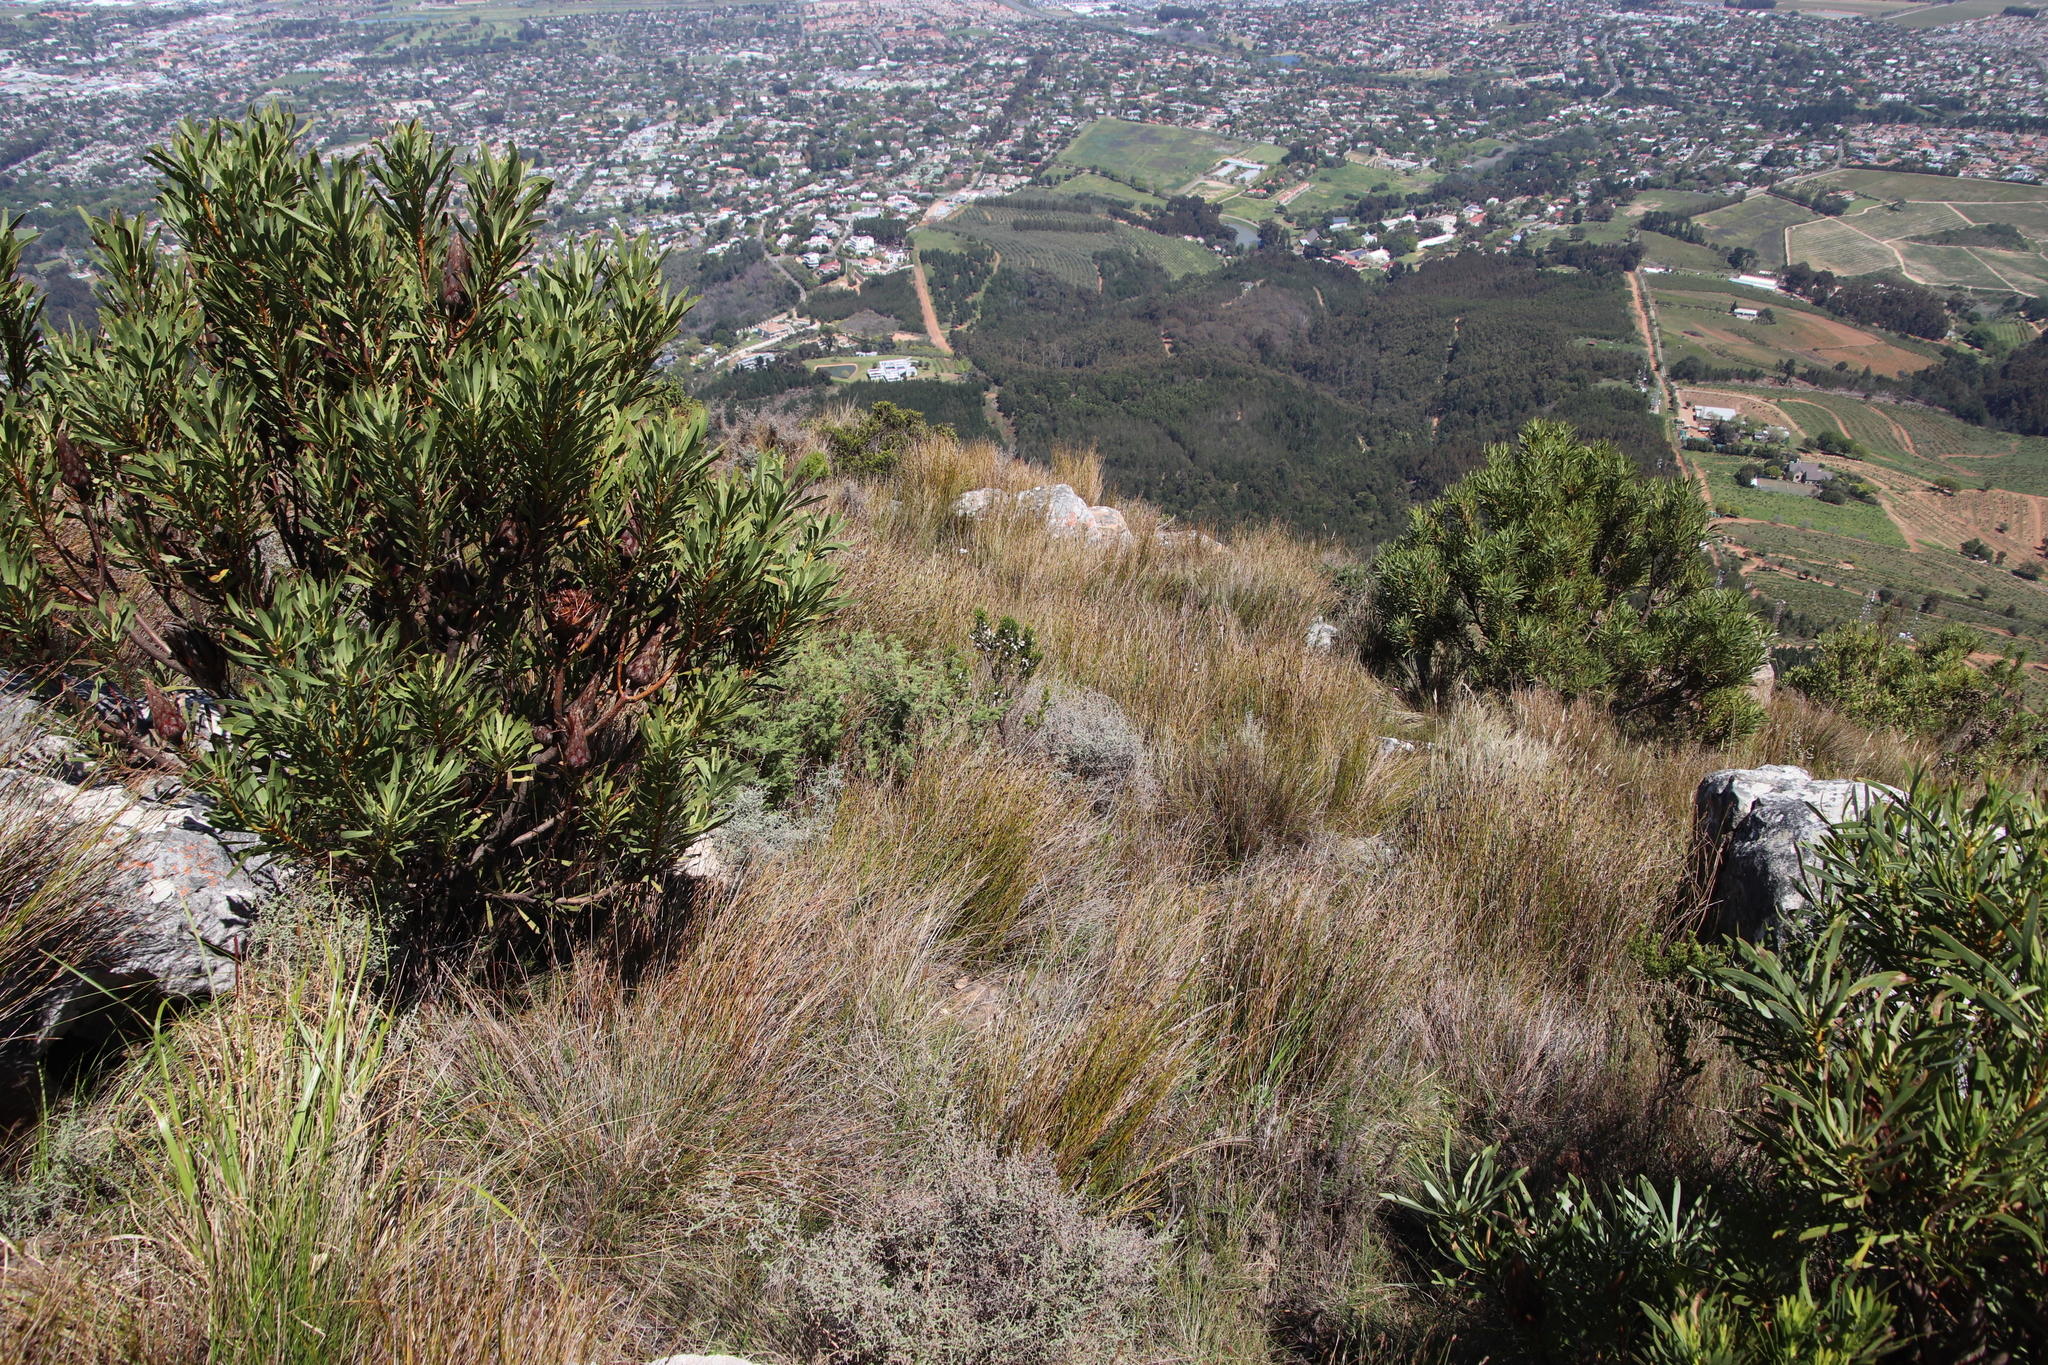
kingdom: Plantae
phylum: Tracheophyta
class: Magnoliopsida
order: Proteales
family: Proteaceae
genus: Protea
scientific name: Protea repens
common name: Sugarbush
